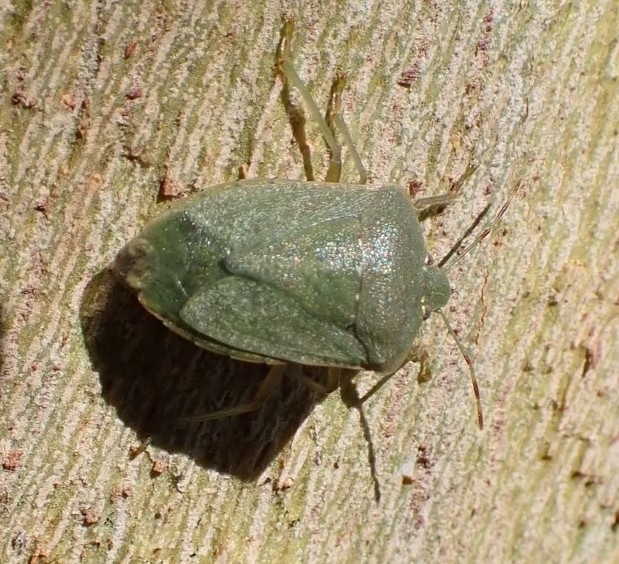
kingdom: Animalia
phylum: Arthropoda
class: Insecta
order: Hemiptera
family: Pentatomidae
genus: Nezara
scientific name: Nezara viridula
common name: Southern green stink bug
